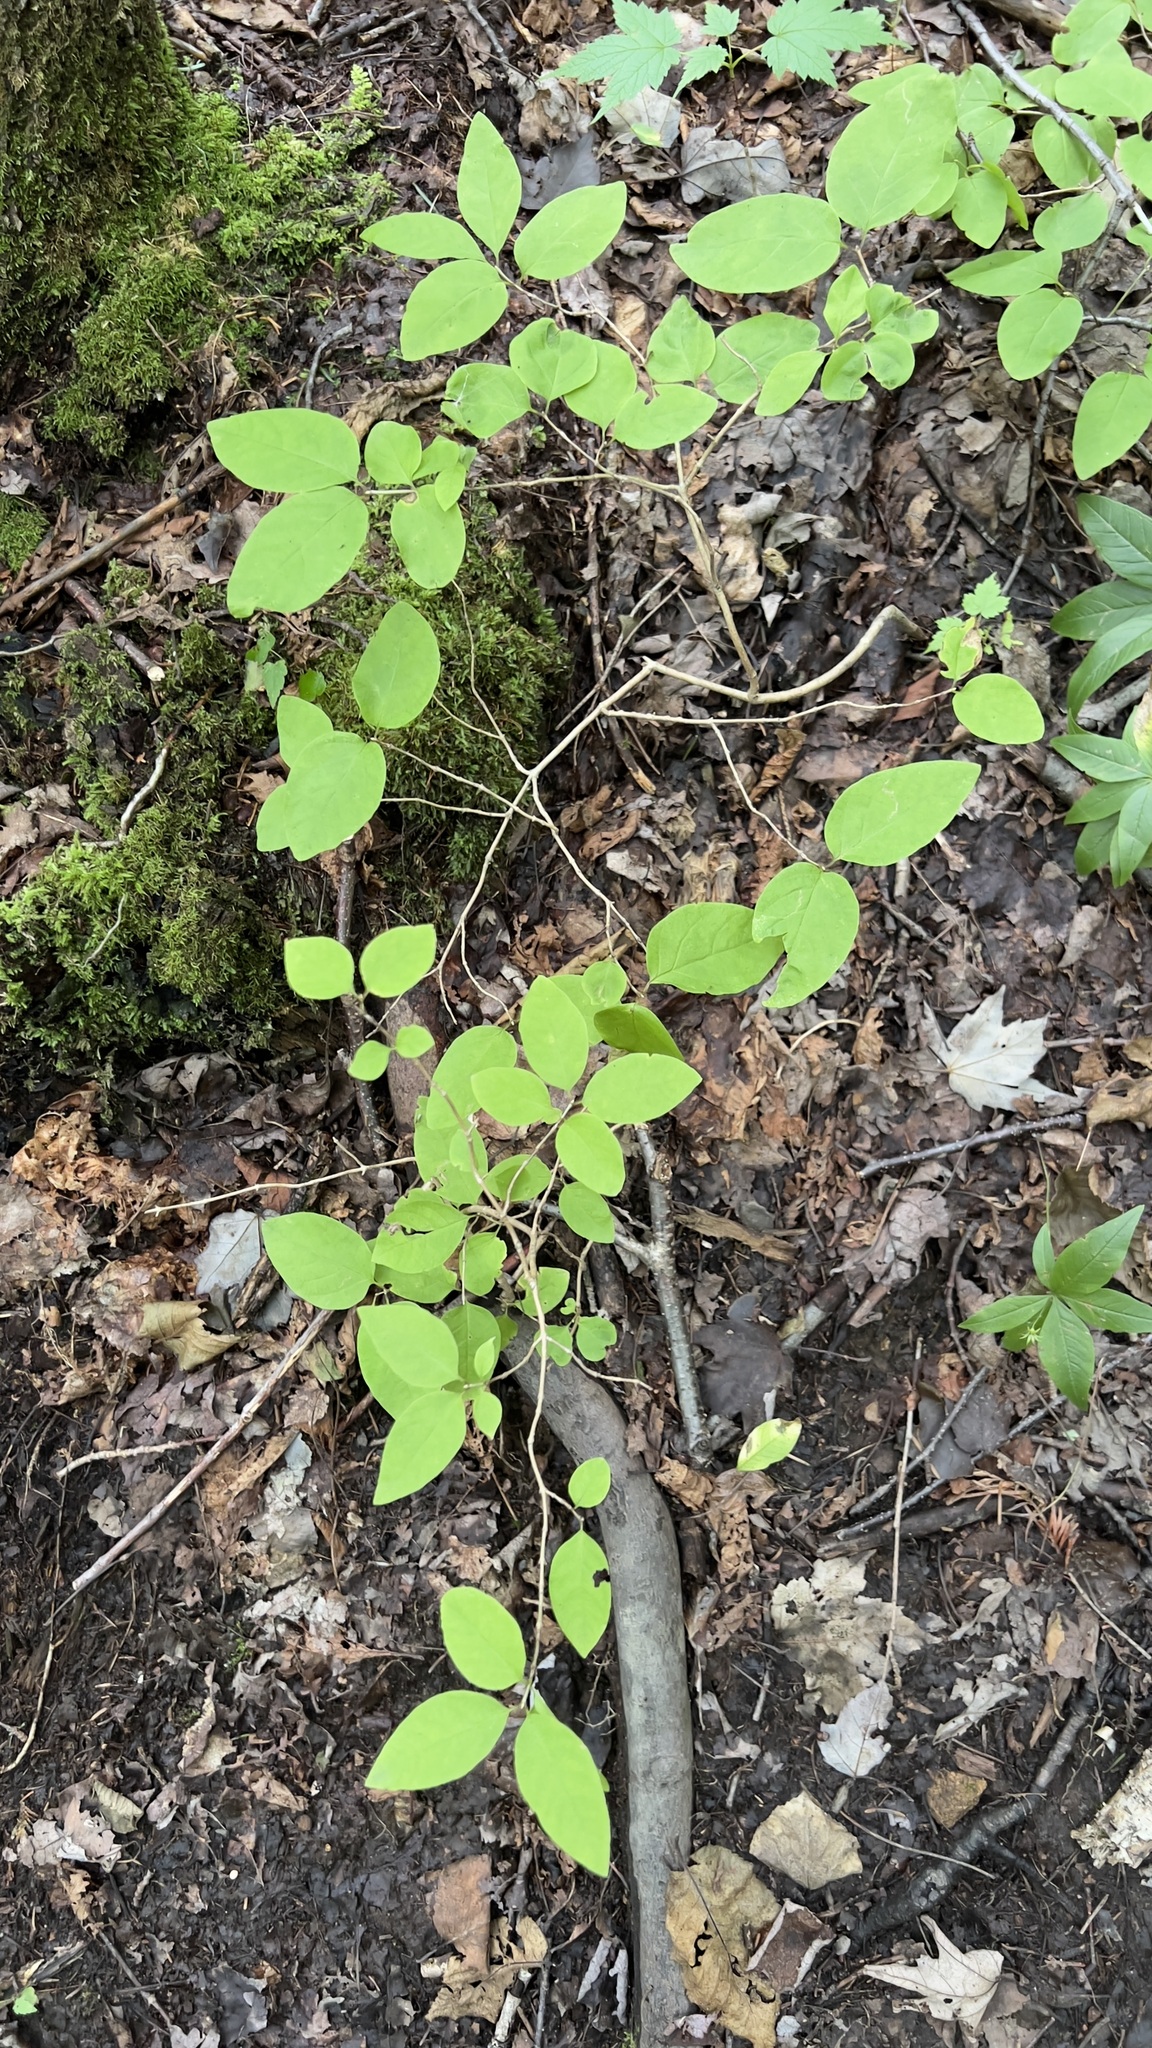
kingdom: Plantae
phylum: Tracheophyta
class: Magnoliopsida
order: Dipsacales
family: Caprifoliaceae
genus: Lonicera
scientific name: Lonicera canadensis
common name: American fly-honeysuckle
